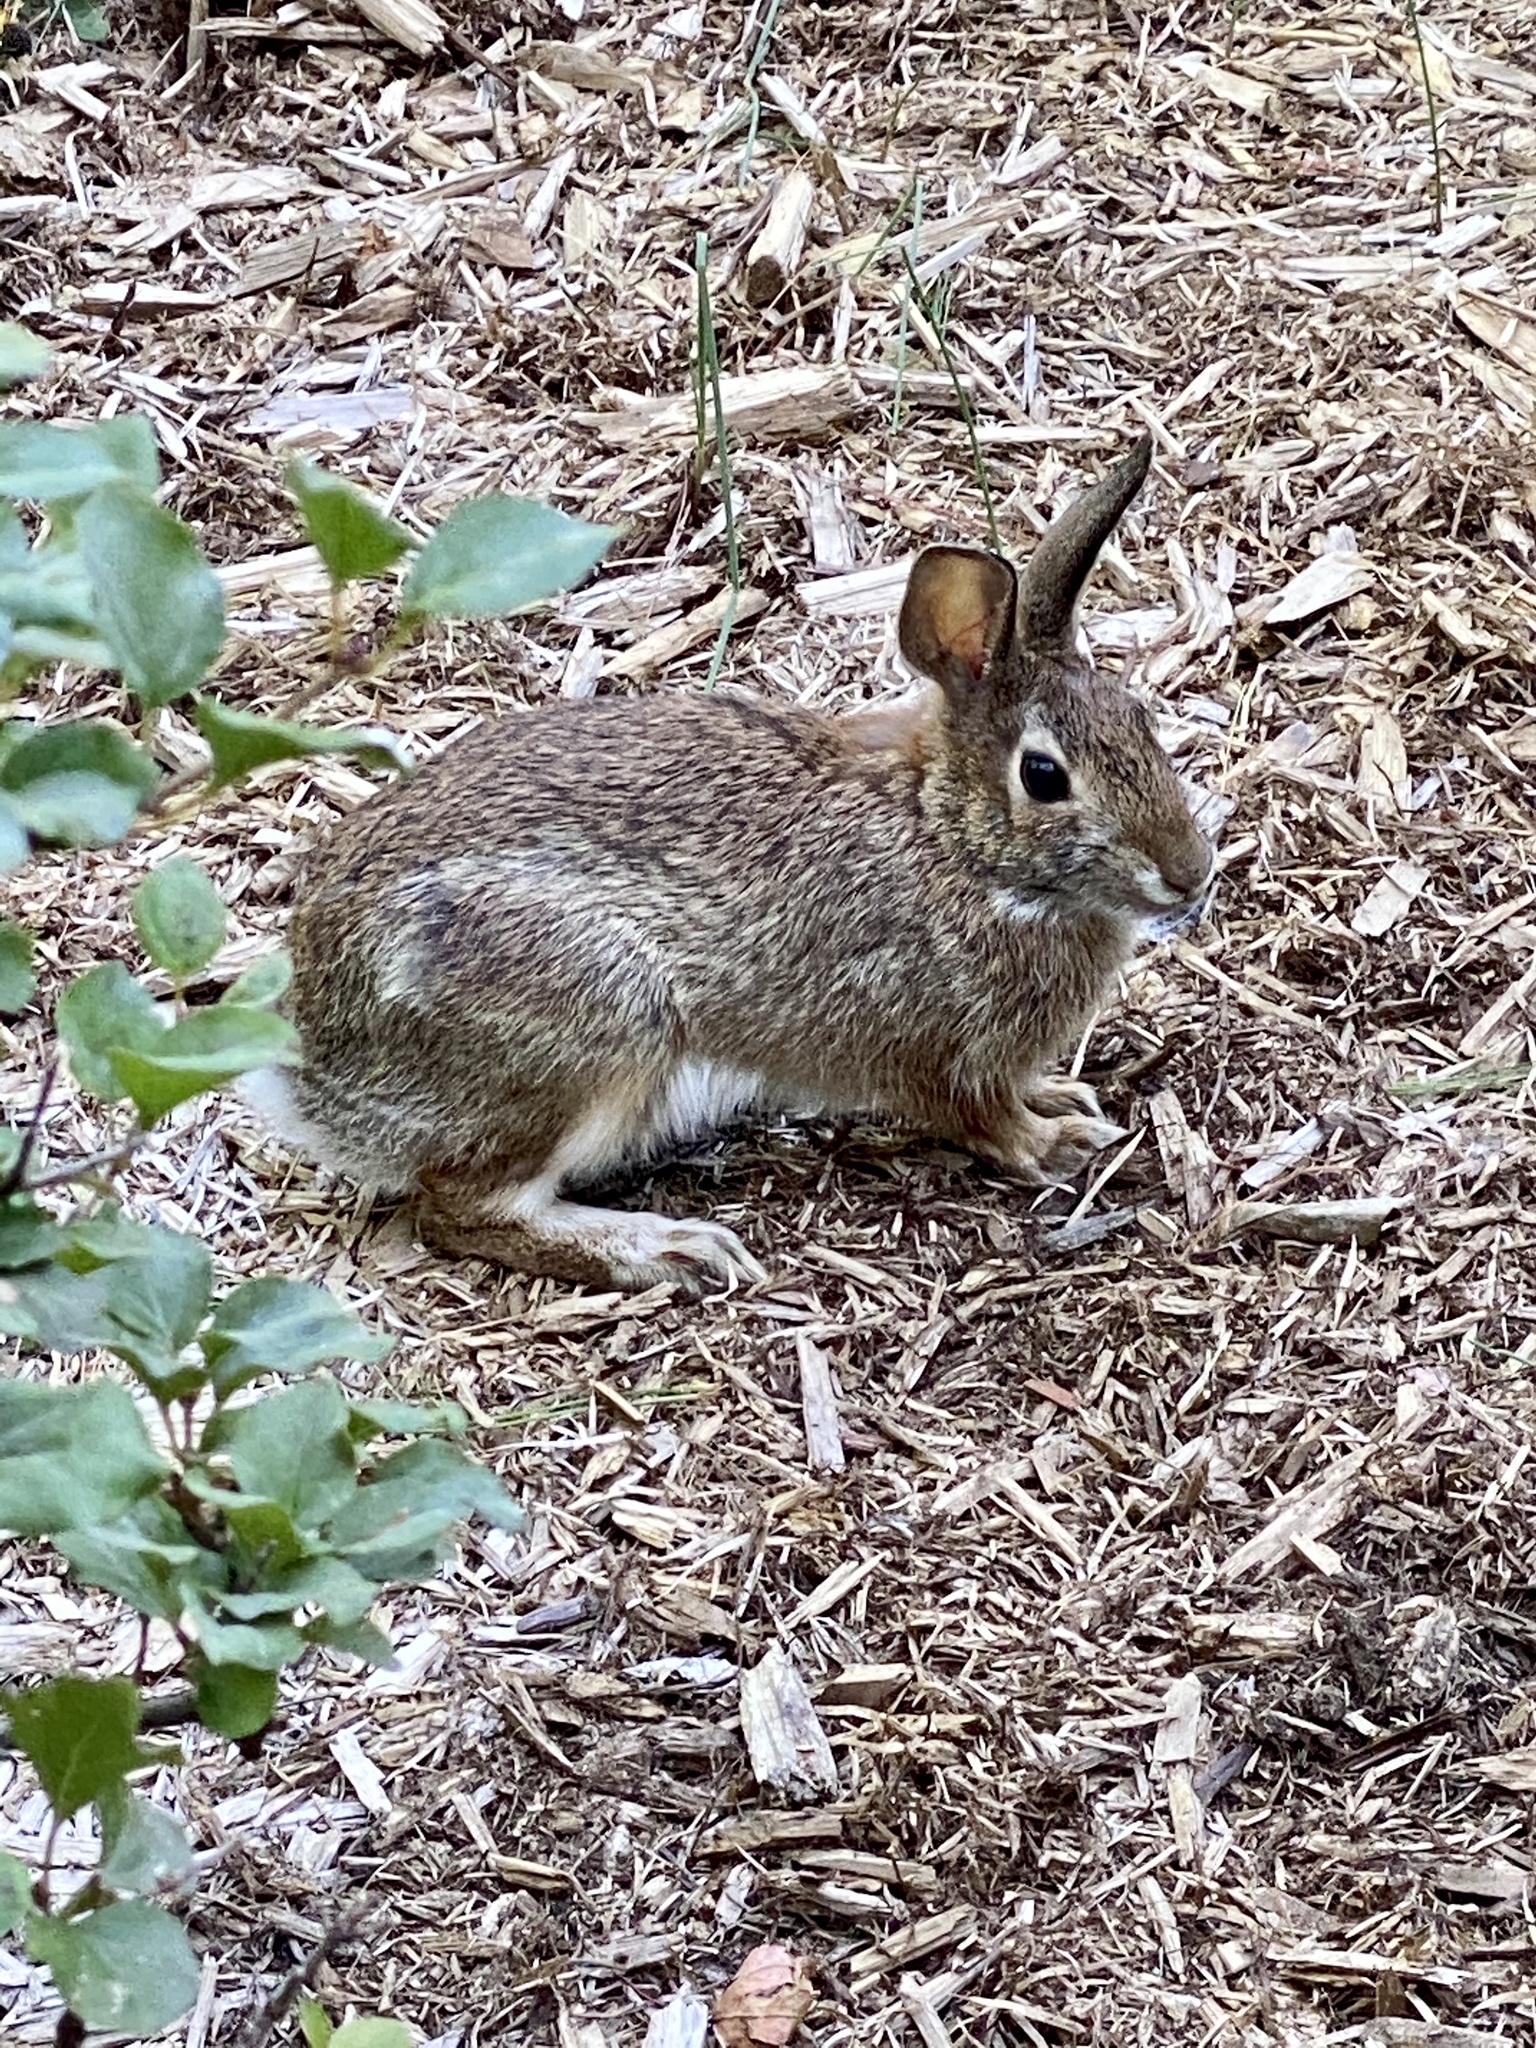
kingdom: Animalia
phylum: Chordata
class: Mammalia
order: Lagomorpha
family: Leporidae
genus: Sylvilagus
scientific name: Sylvilagus floridanus
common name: Eastern cottontail
